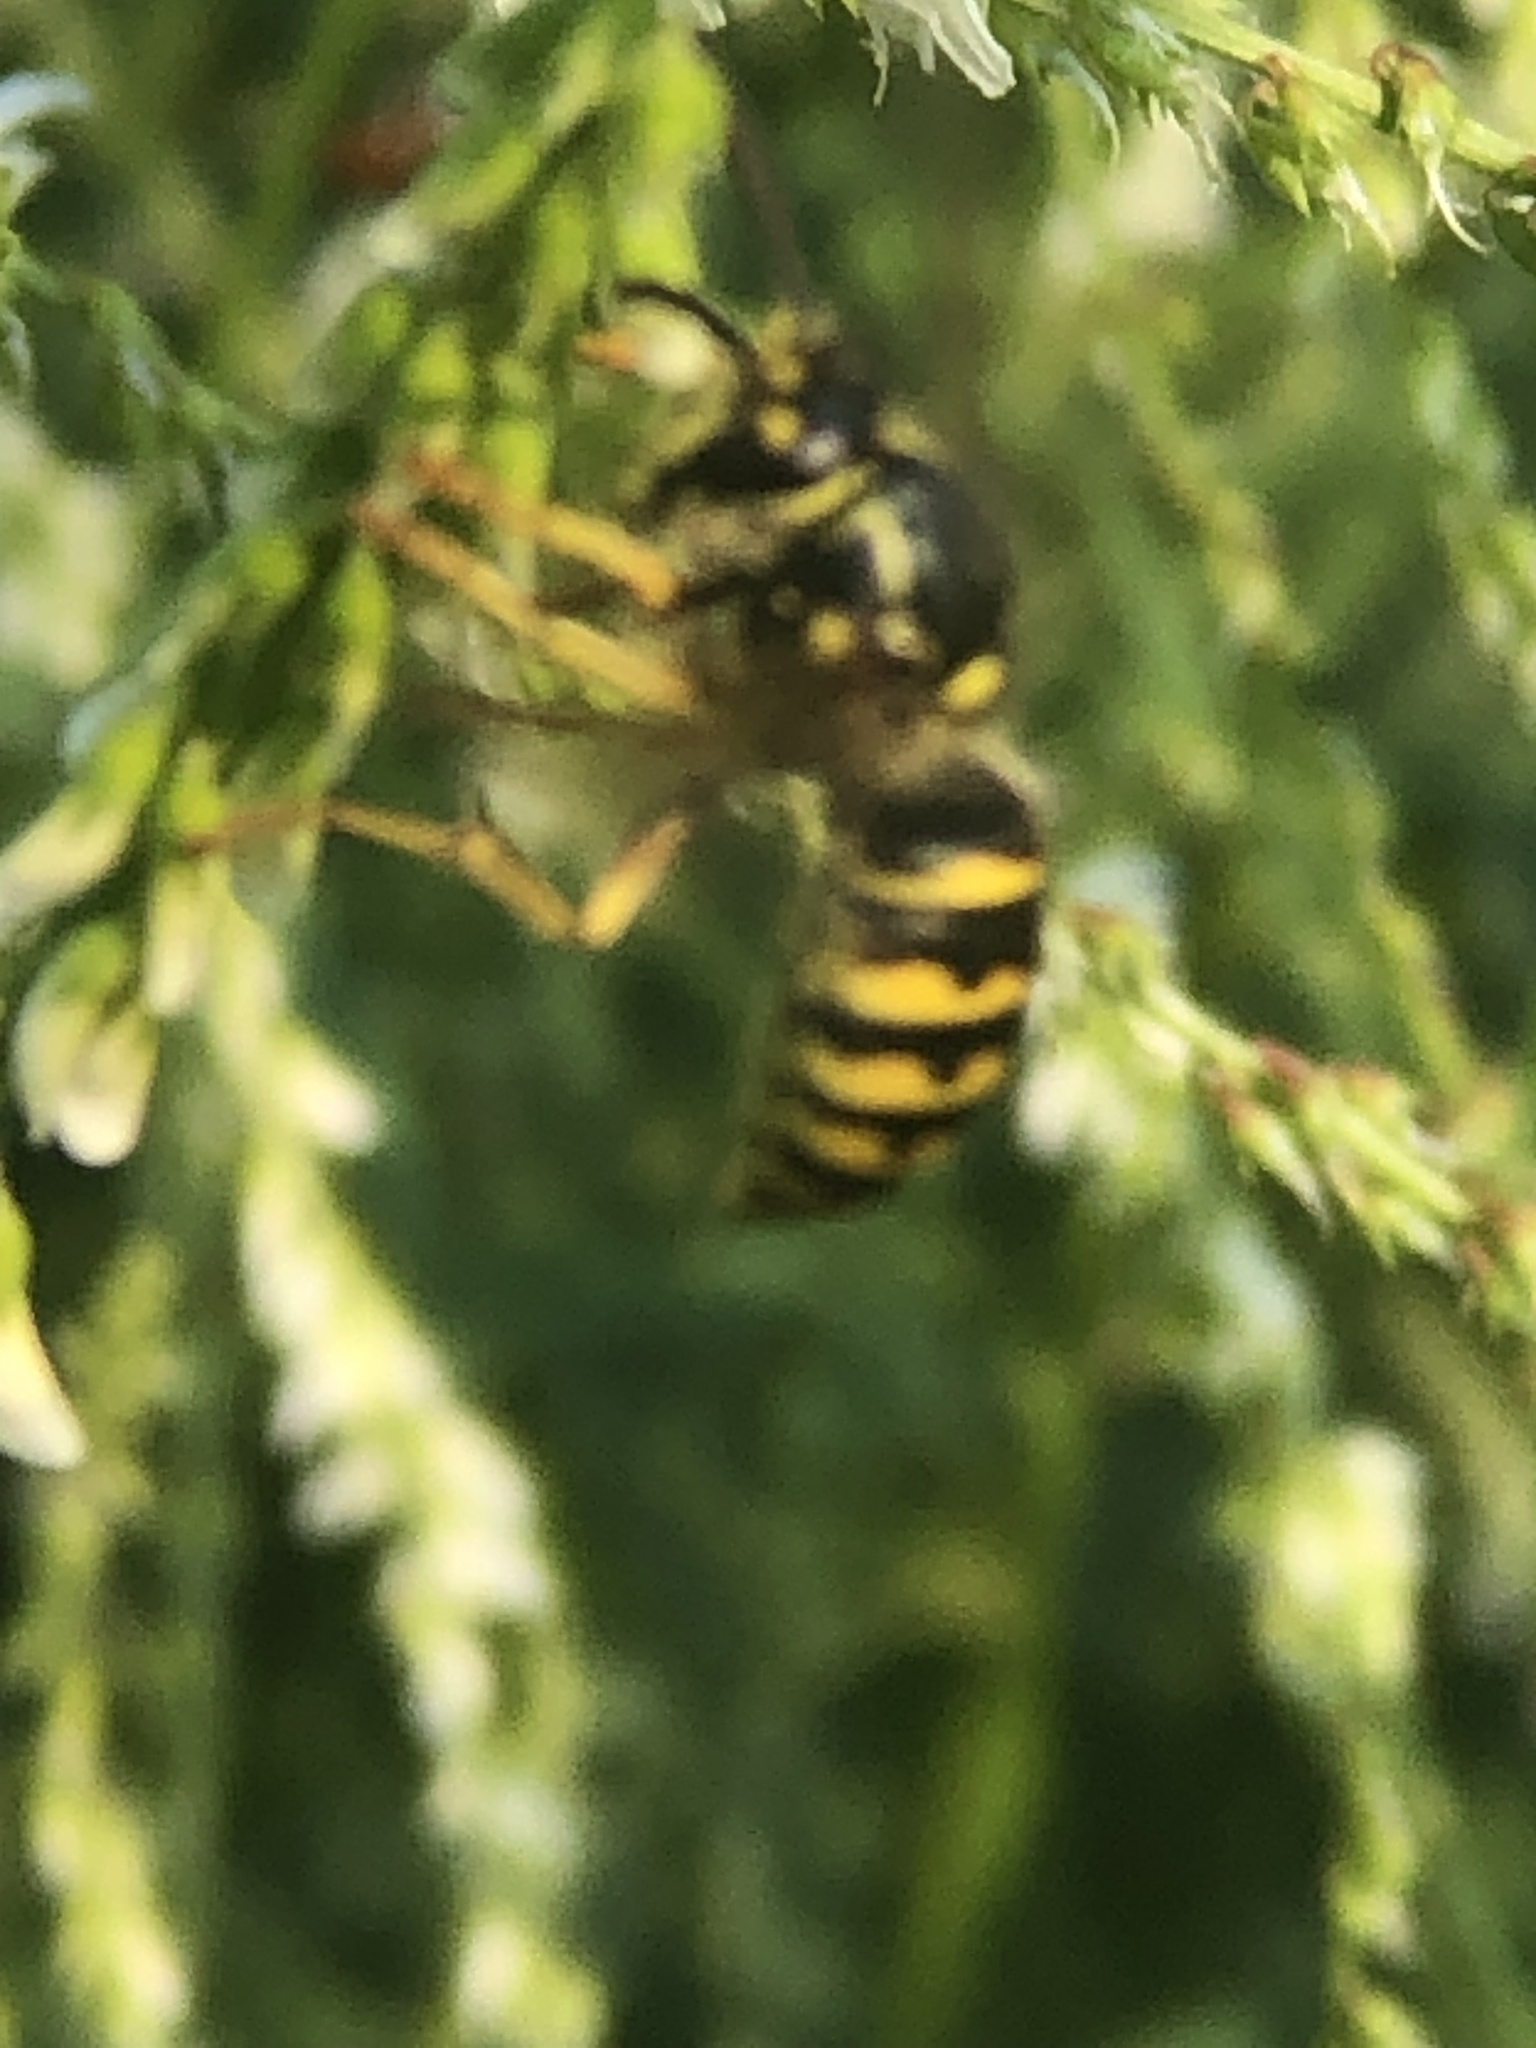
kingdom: Animalia
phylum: Arthropoda
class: Insecta
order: Hymenoptera
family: Vespidae
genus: Dolichovespula
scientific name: Dolichovespula arenaria
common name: Aerial yellowjacket
